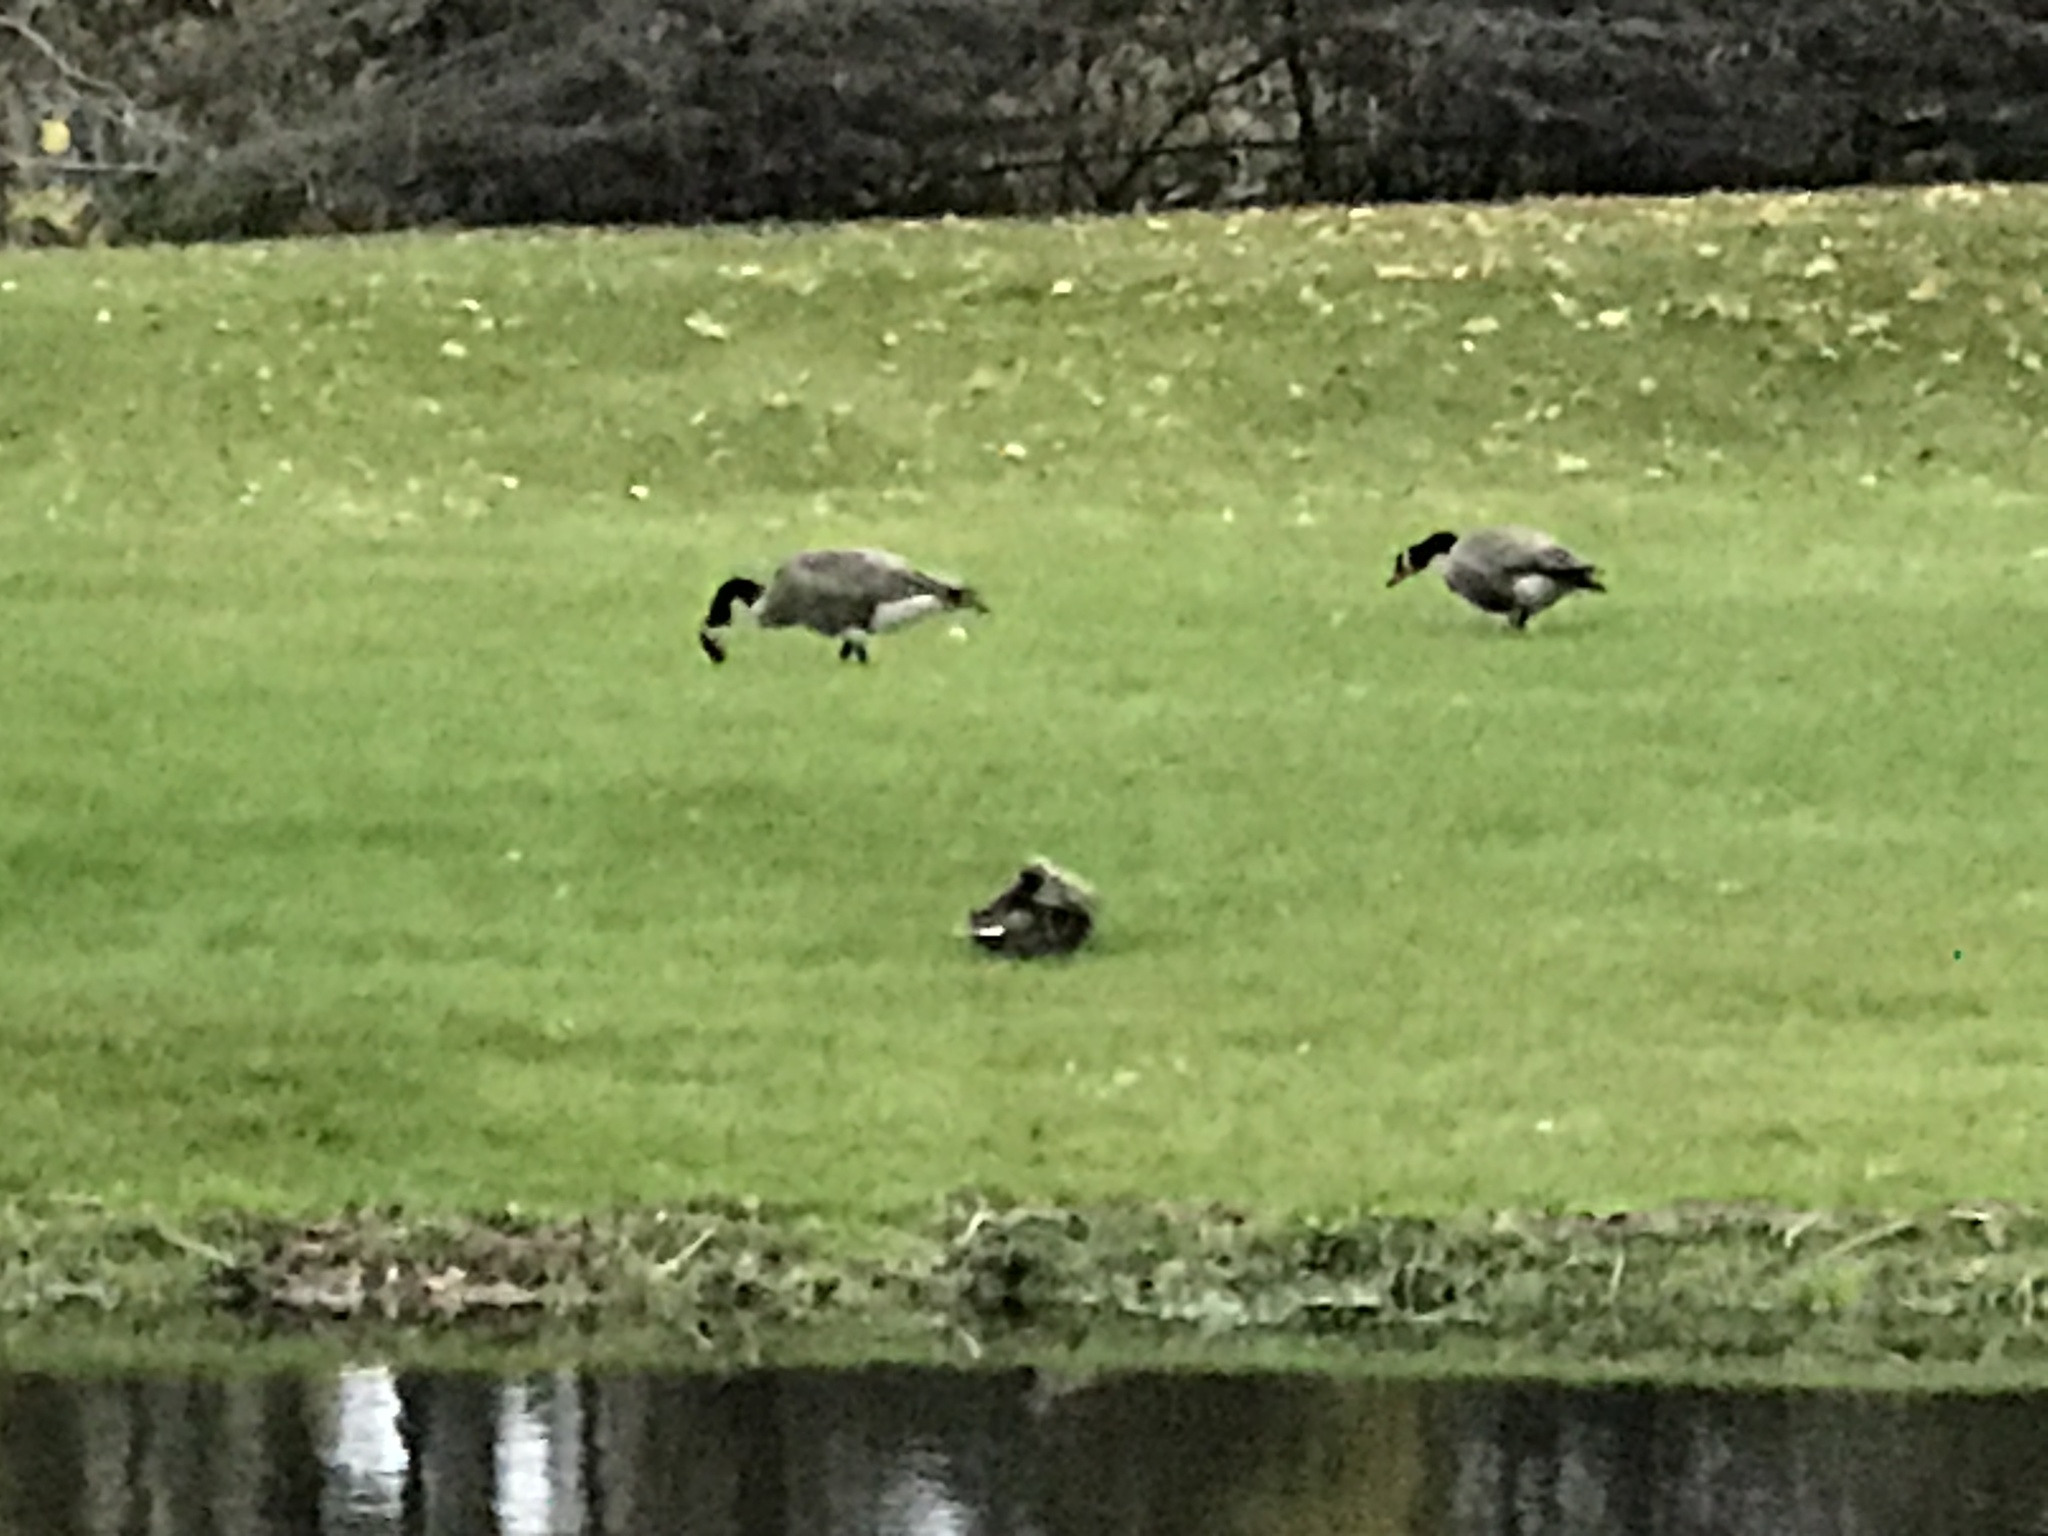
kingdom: Animalia
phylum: Chordata
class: Aves
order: Anseriformes
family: Anatidae
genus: Branta
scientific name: Branta canadensis
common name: Canada goose
